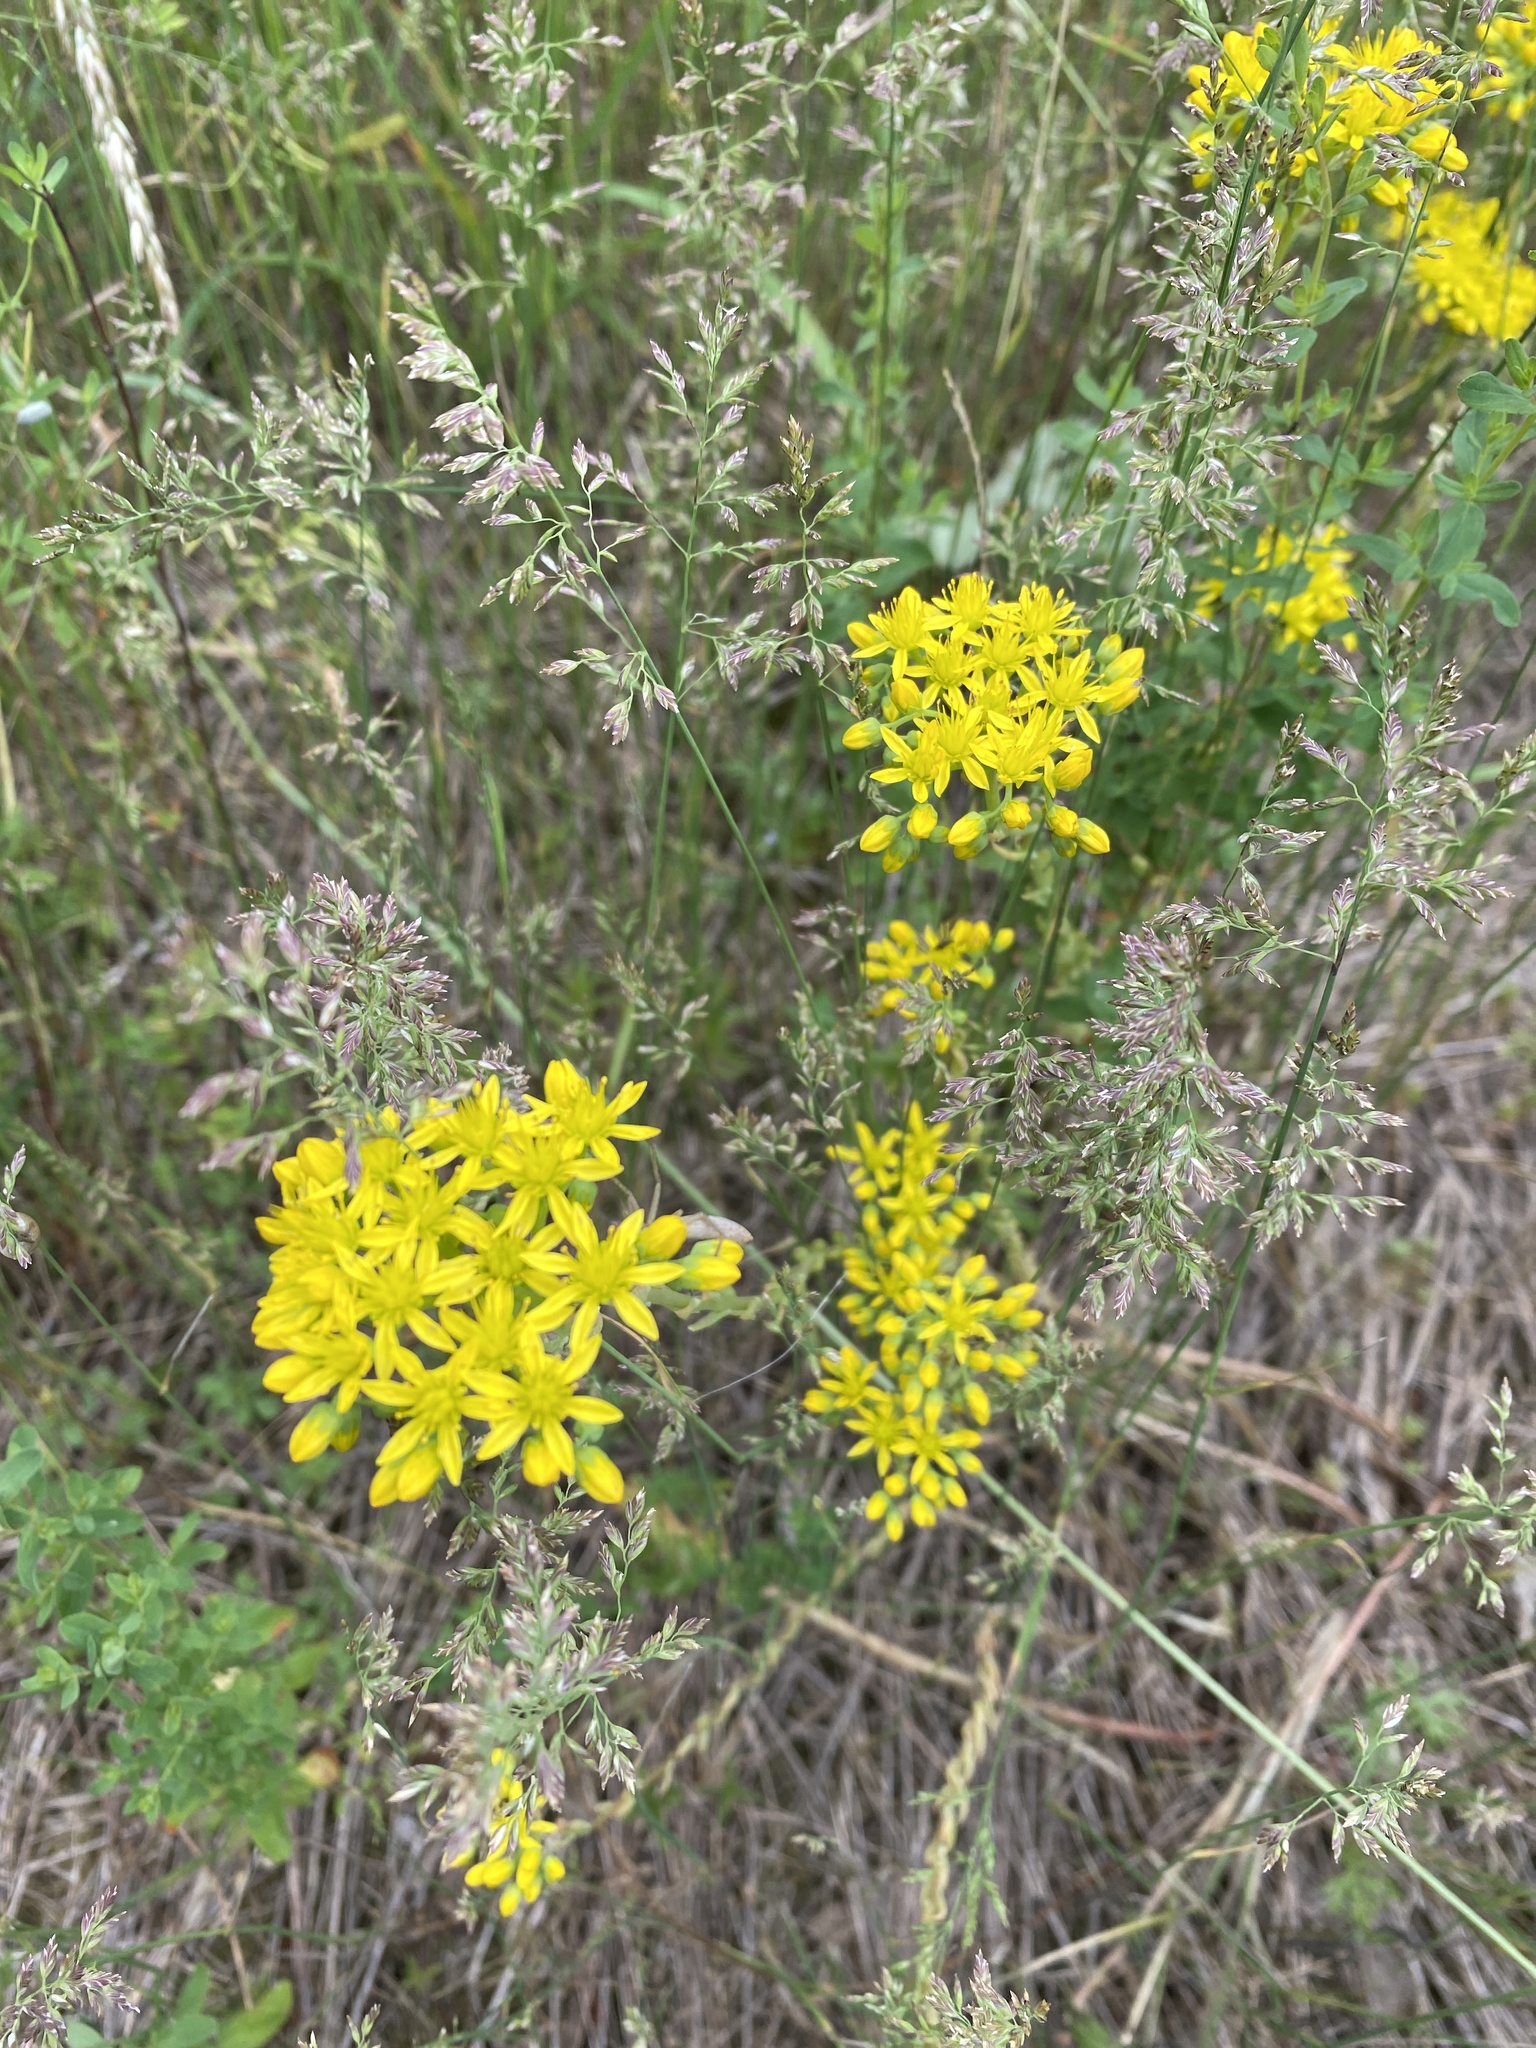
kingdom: Plantae
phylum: Tracheophyta
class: Magnoliopsida
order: Saxifragales
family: Crassulaceae
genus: Petrosedum
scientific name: Petrosedum rupestre
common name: Jenny's stonecrop
